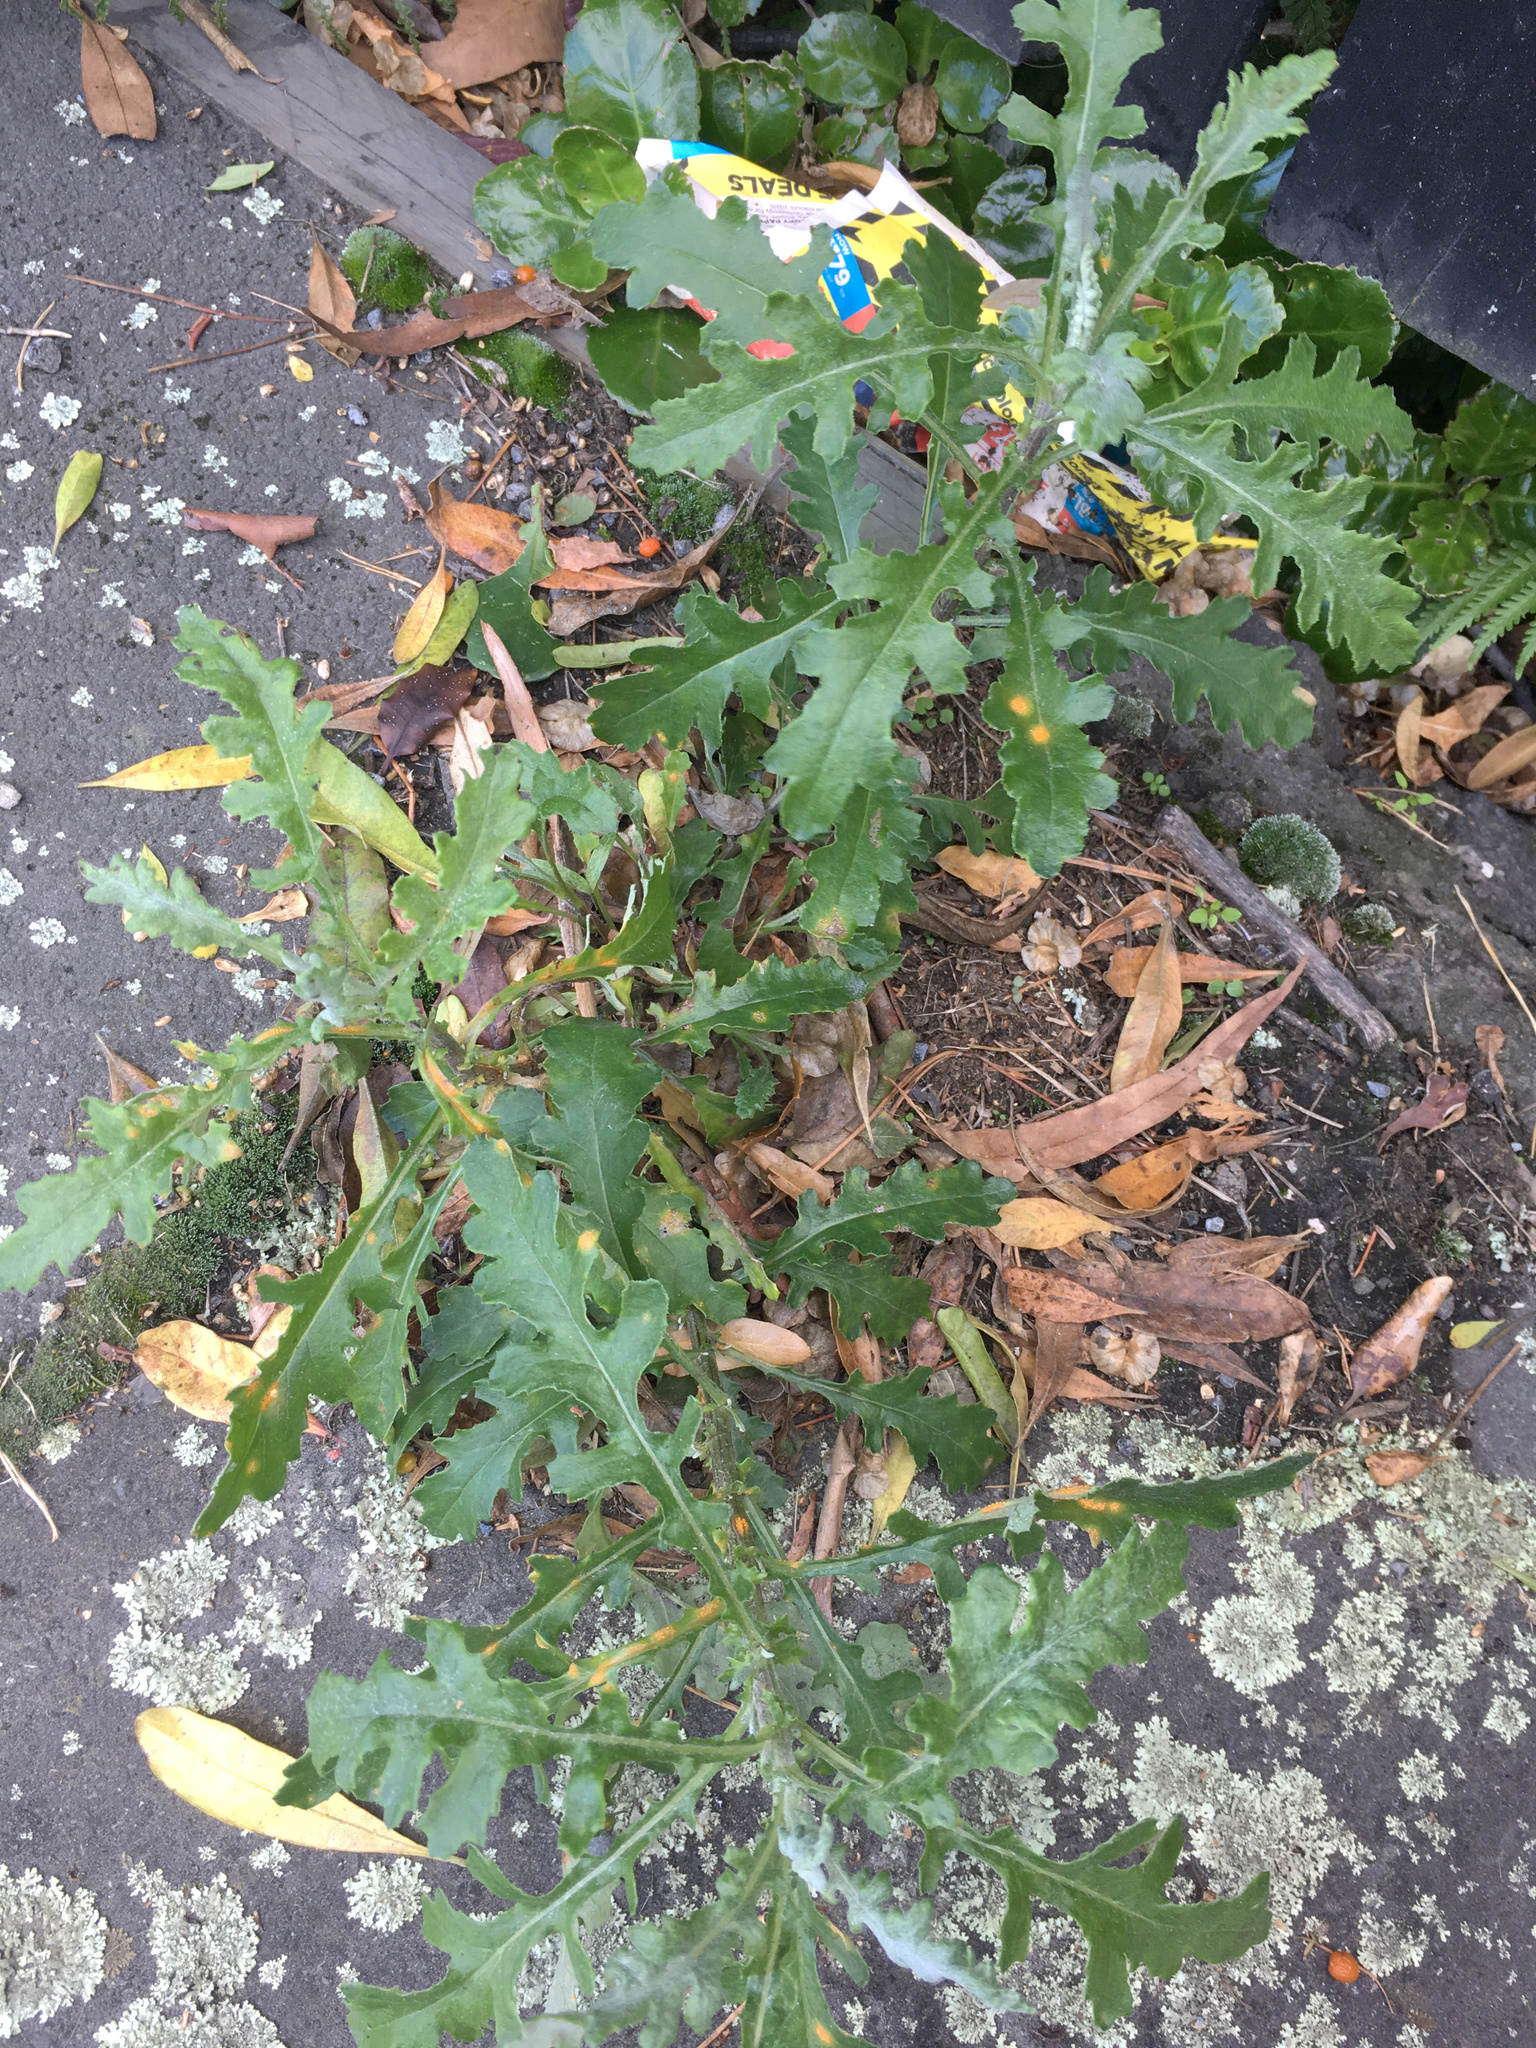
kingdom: Plantae
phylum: Tracheophyta
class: Magnoliopsida
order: Asterales
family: Asteraceae
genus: Senecio
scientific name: Senecio glomeratus
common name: Cutleaf burnweed
